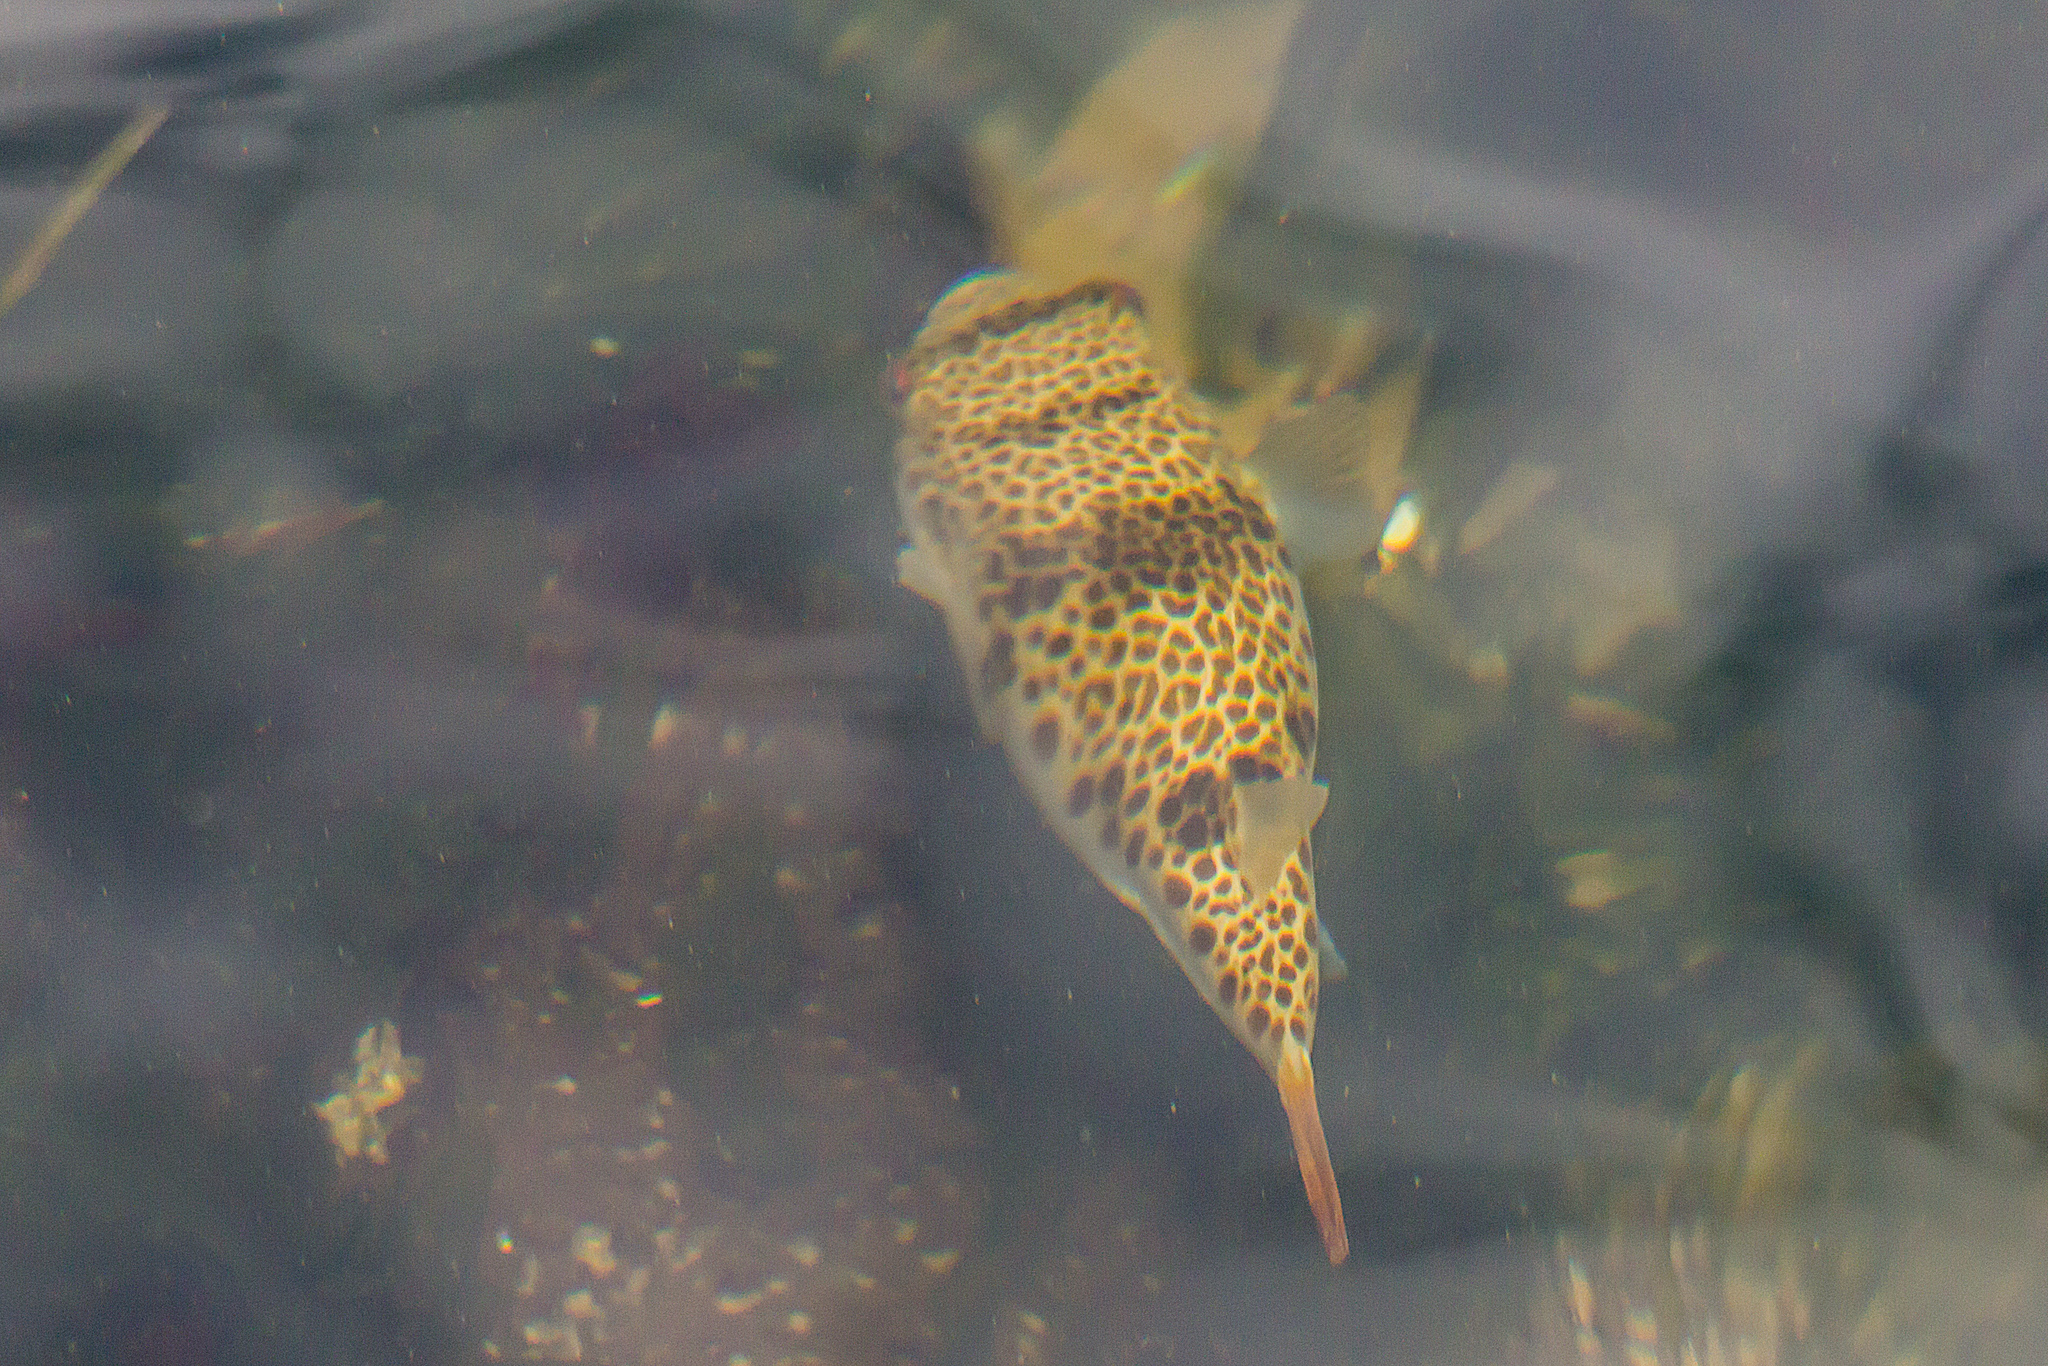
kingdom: Animalia
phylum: Chordata
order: Tetraodontiformes
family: Tetraodontidae
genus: Tetractenos
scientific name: Tetractenos glaber
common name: Smooth toadfish
